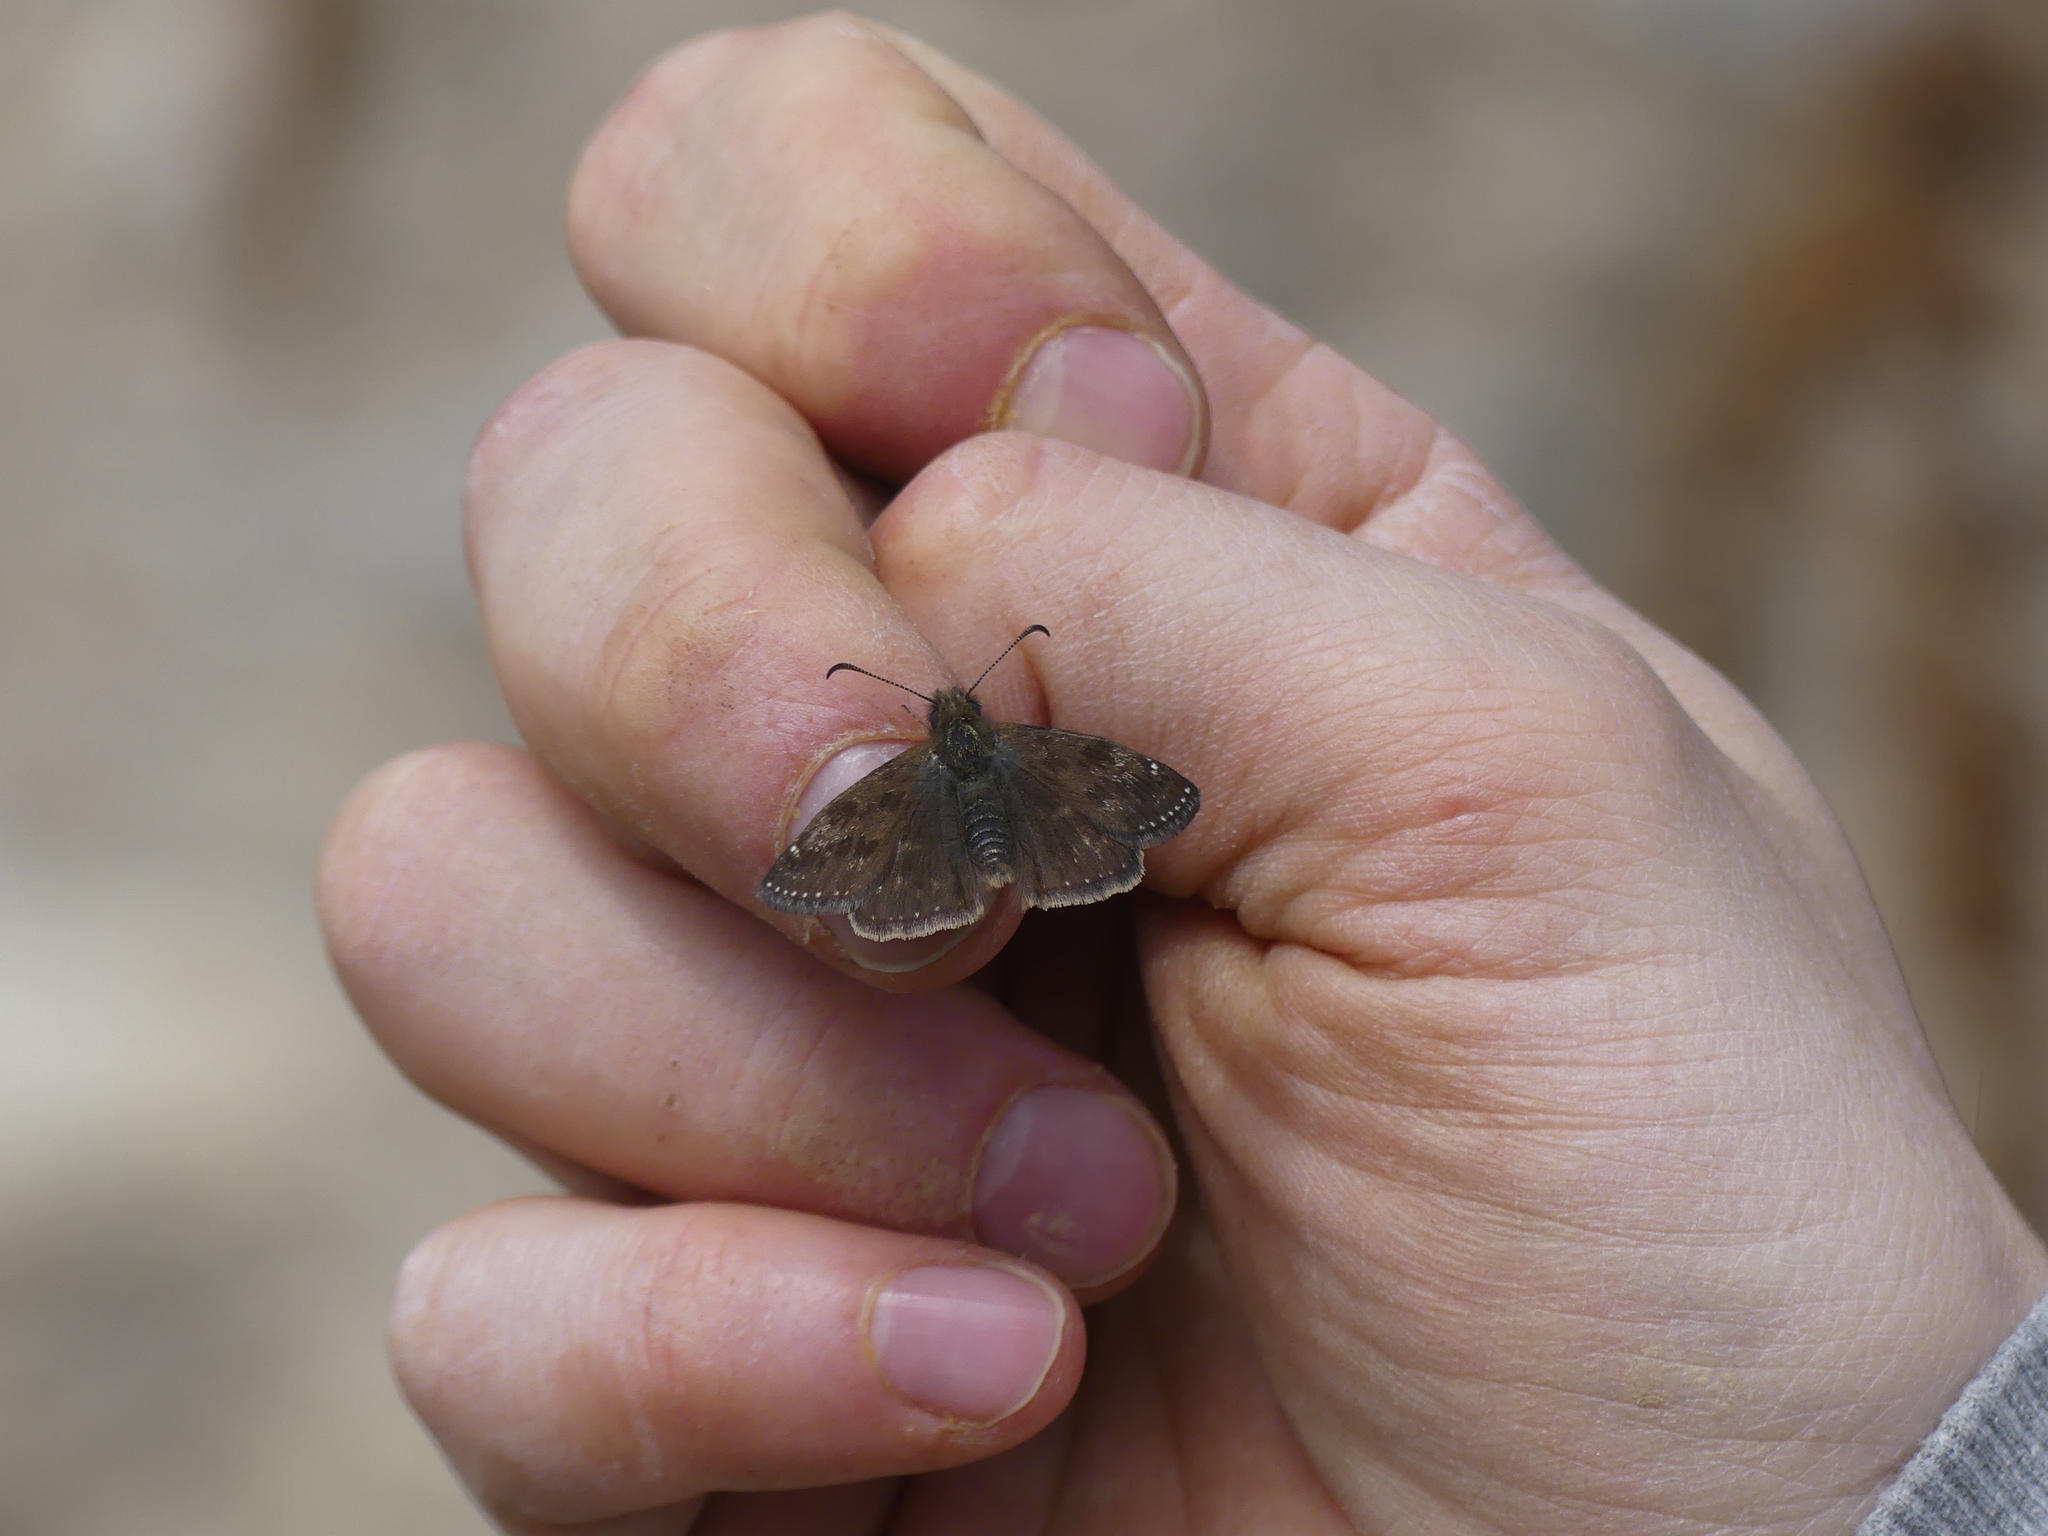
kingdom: Animalia
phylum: Arthropoda
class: Insecta
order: Lepidoptera
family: Hesperiidae
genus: Erynnis
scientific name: Erynnis tages
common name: Dingy skipper
